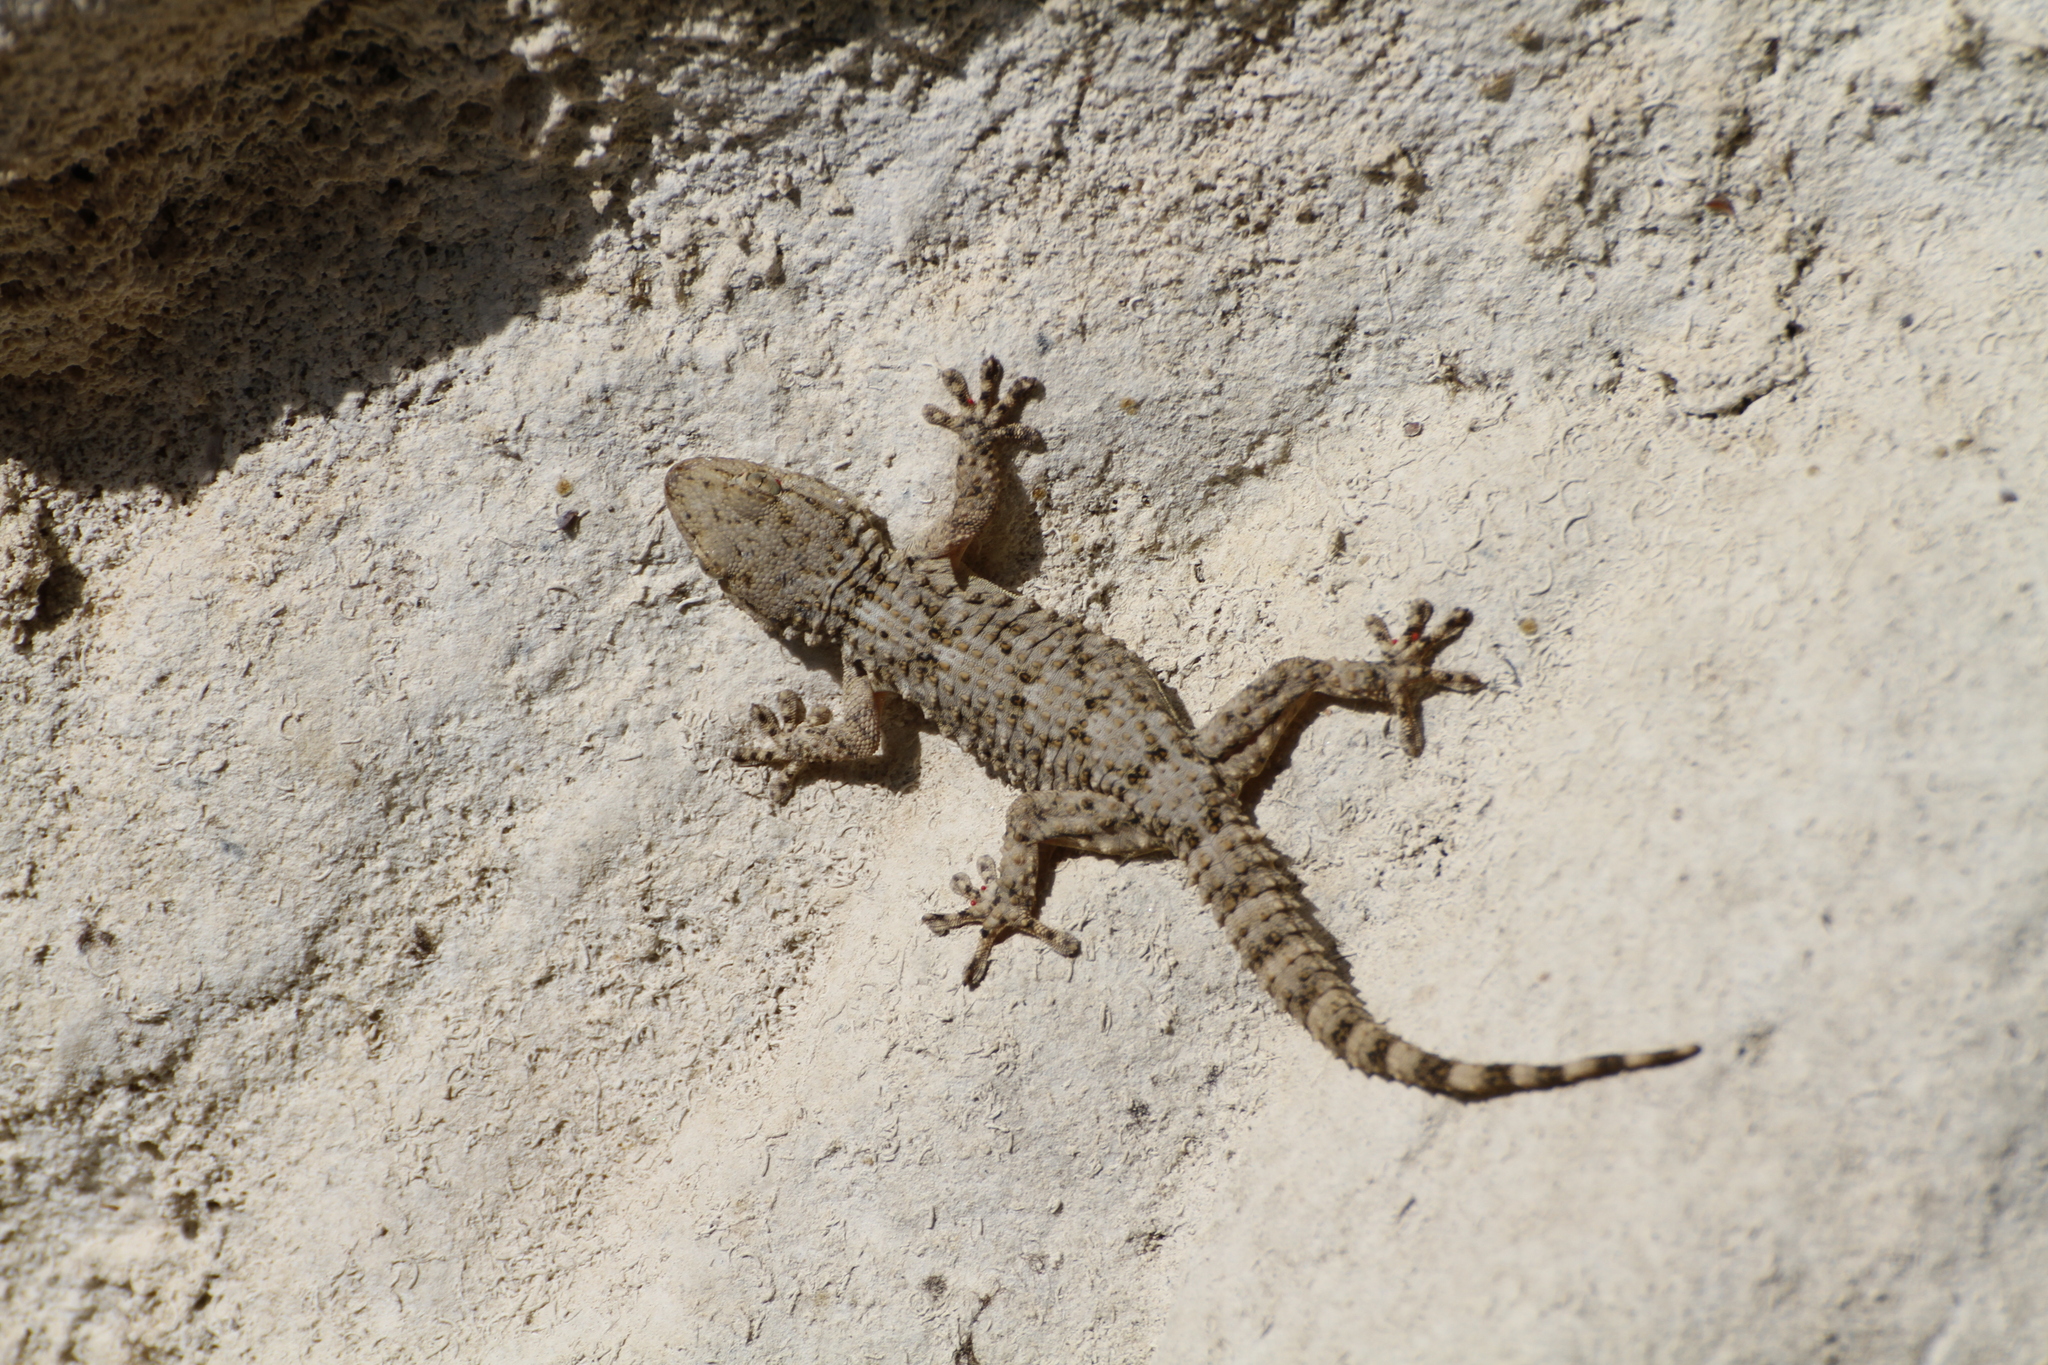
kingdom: Animalia
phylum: Chordata
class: Squamata
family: Phyllodactylidae
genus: Tarentola
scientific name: Tarentola mauritanica
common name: Moorish gecko
